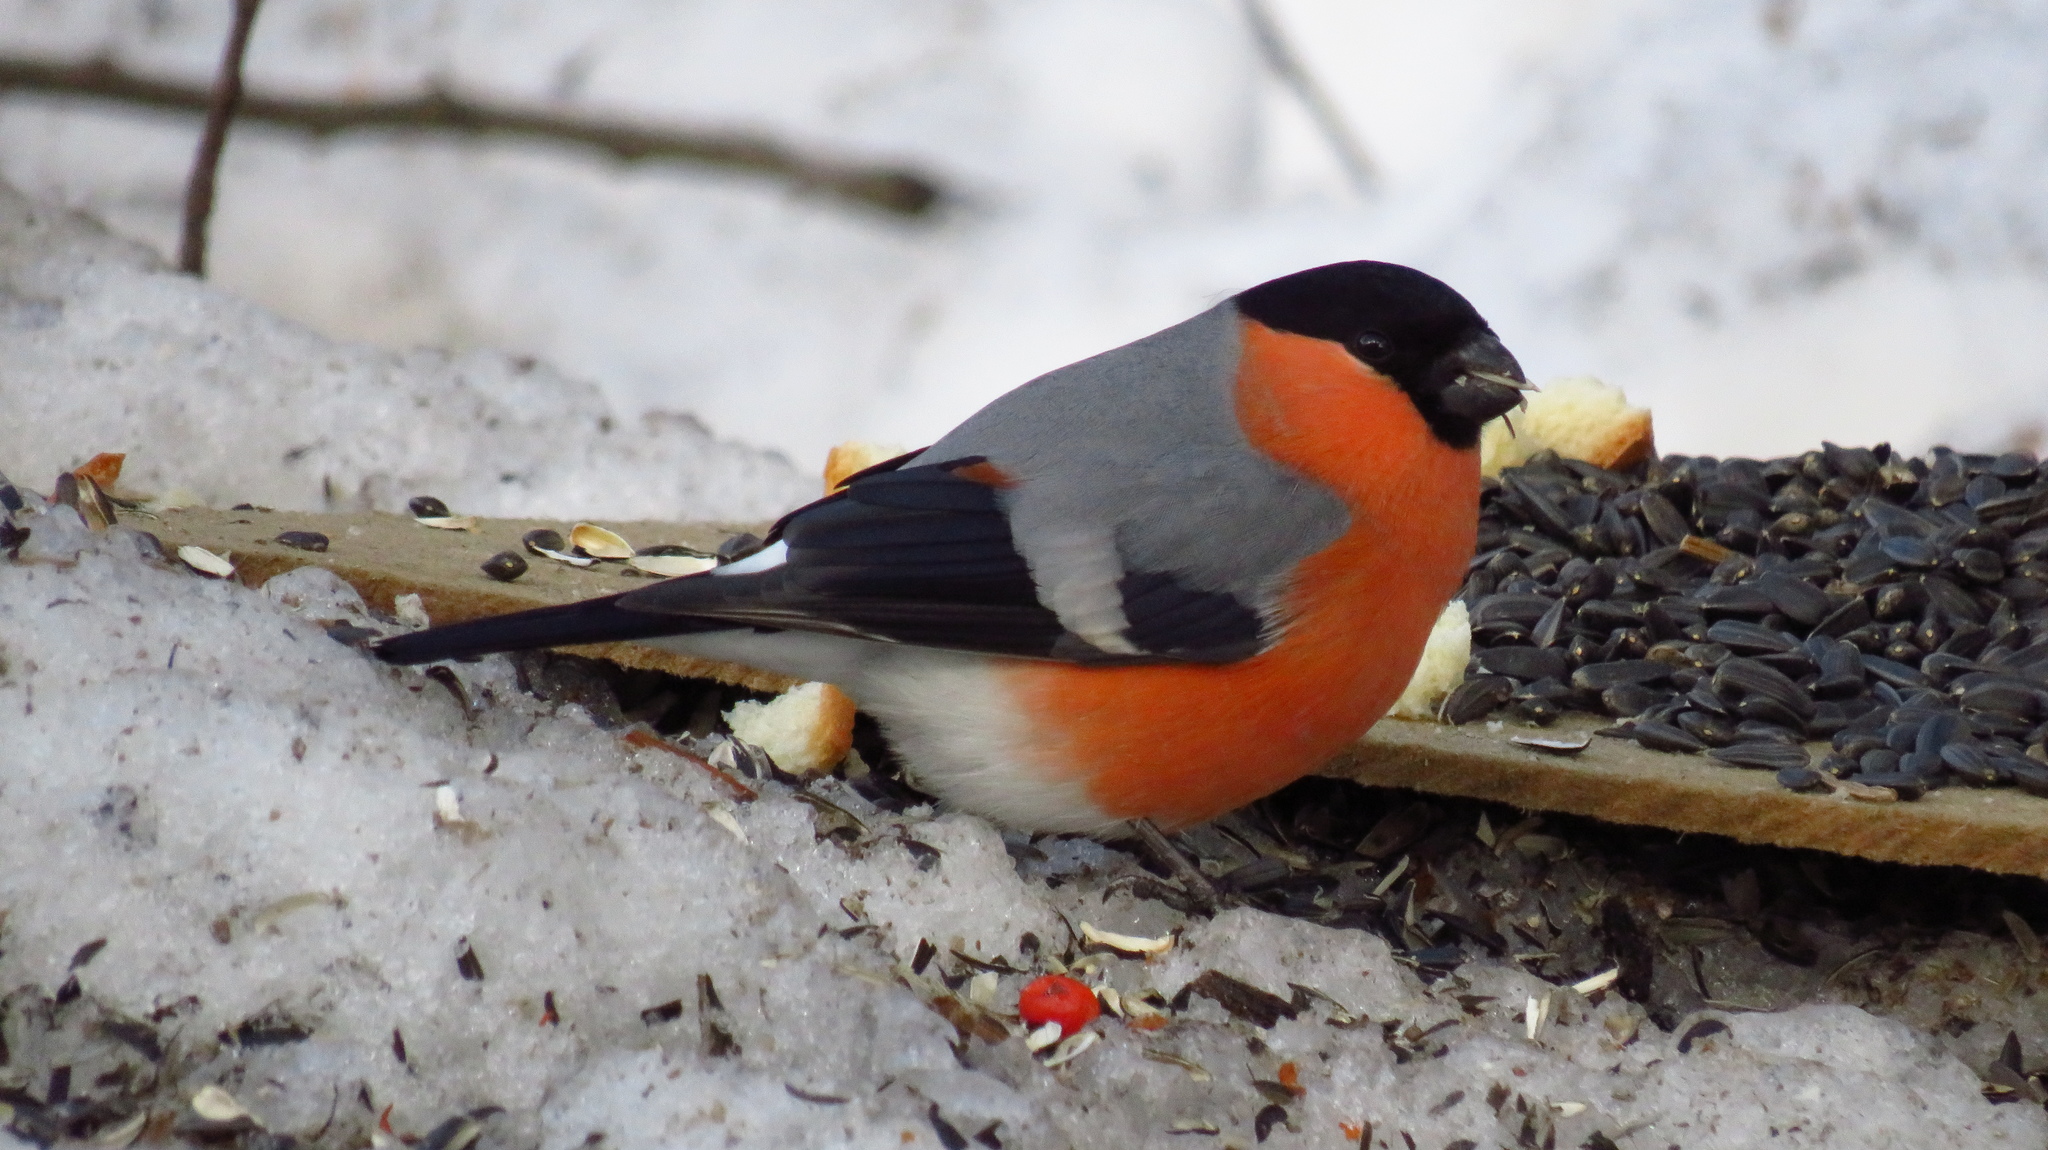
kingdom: Animalia
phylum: Chordata
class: Aves
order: Passeriformes
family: Fringillidae
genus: Pyrrhula
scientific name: Pyrrhula pyrrhula
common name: Eurasian bullfinch
